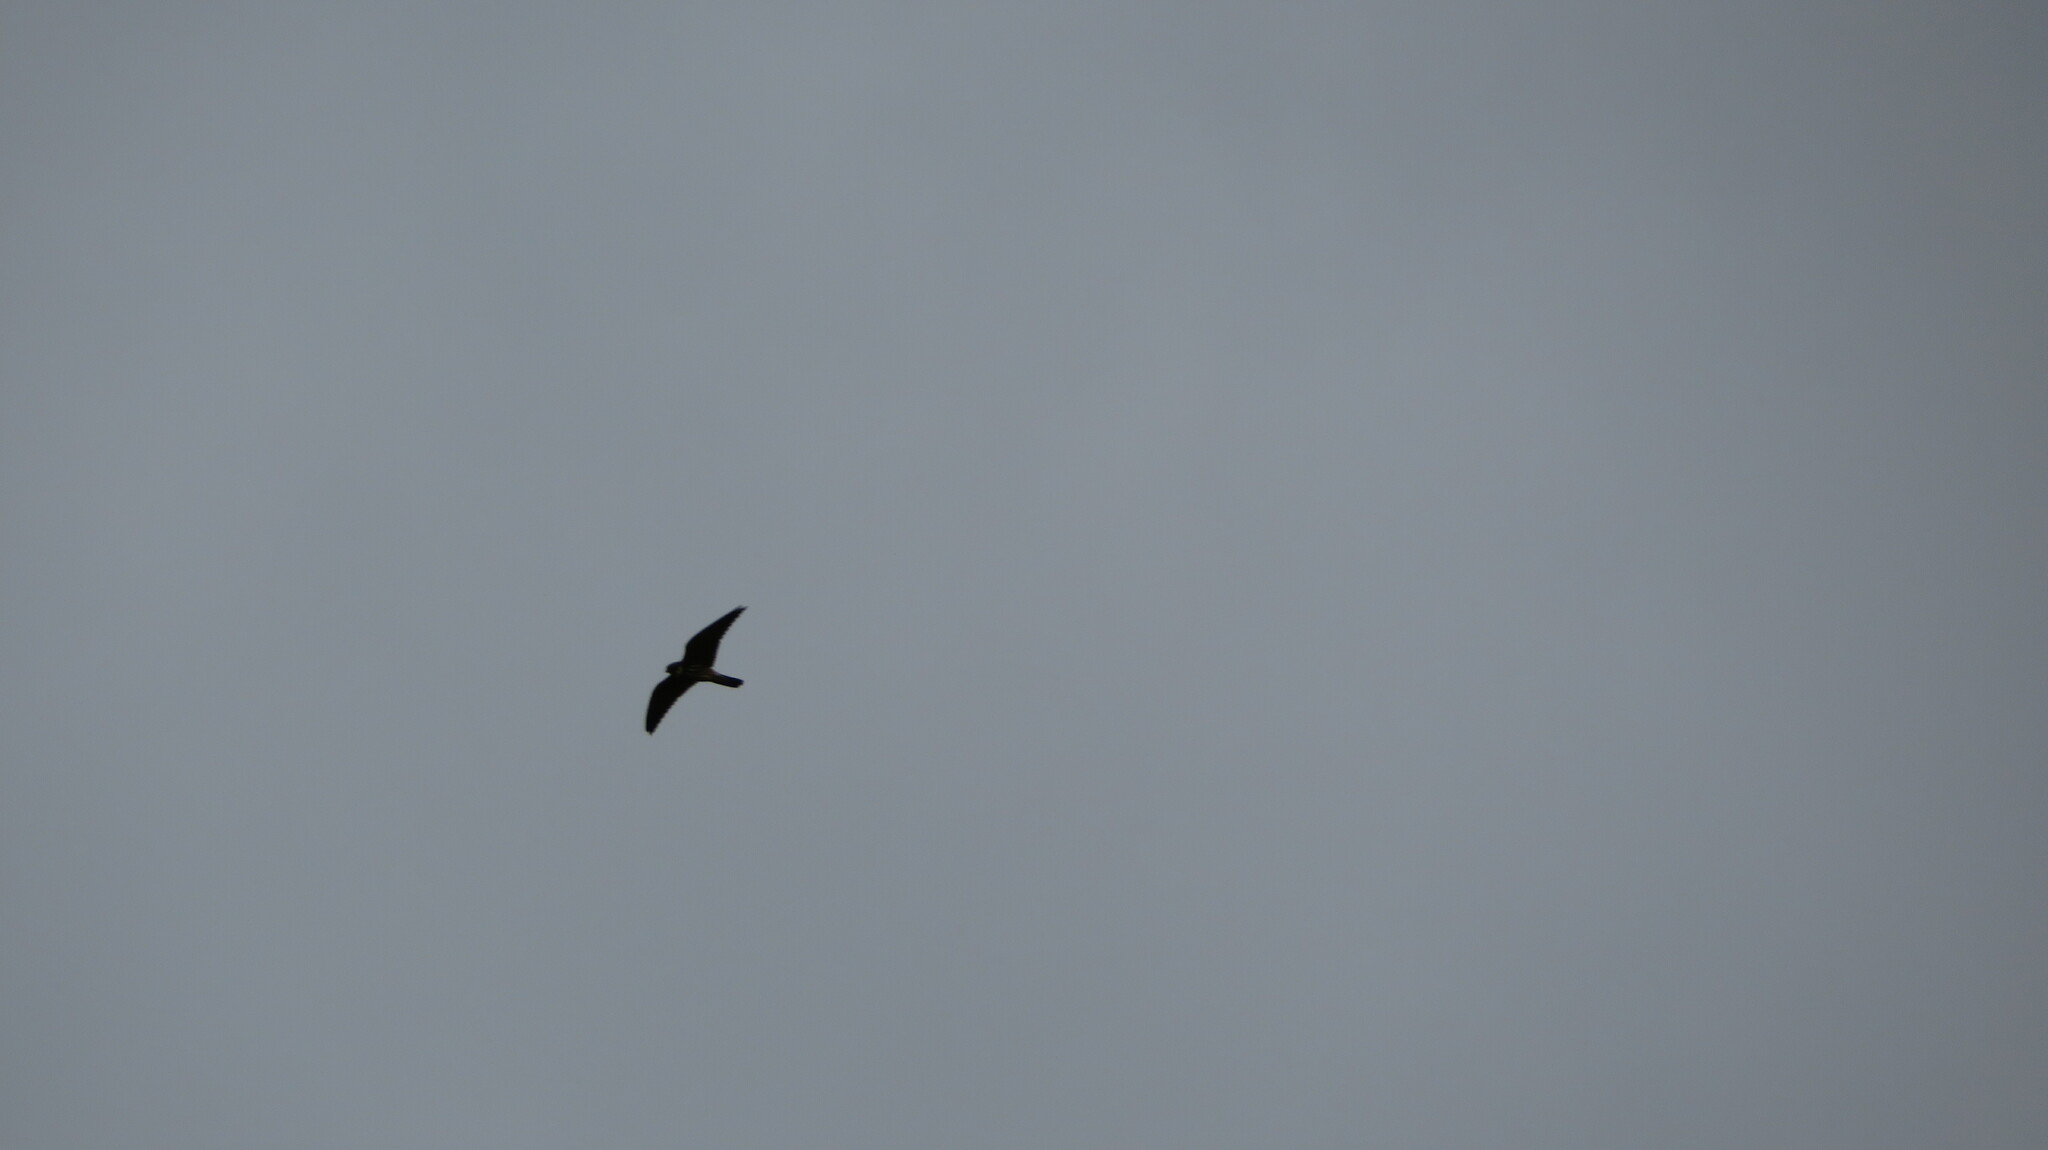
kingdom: Animalia
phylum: Chordata
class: Aves
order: Falconiformes
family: Falconidae
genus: Falco
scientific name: Falco subbuteo
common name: Eurasian hobby
